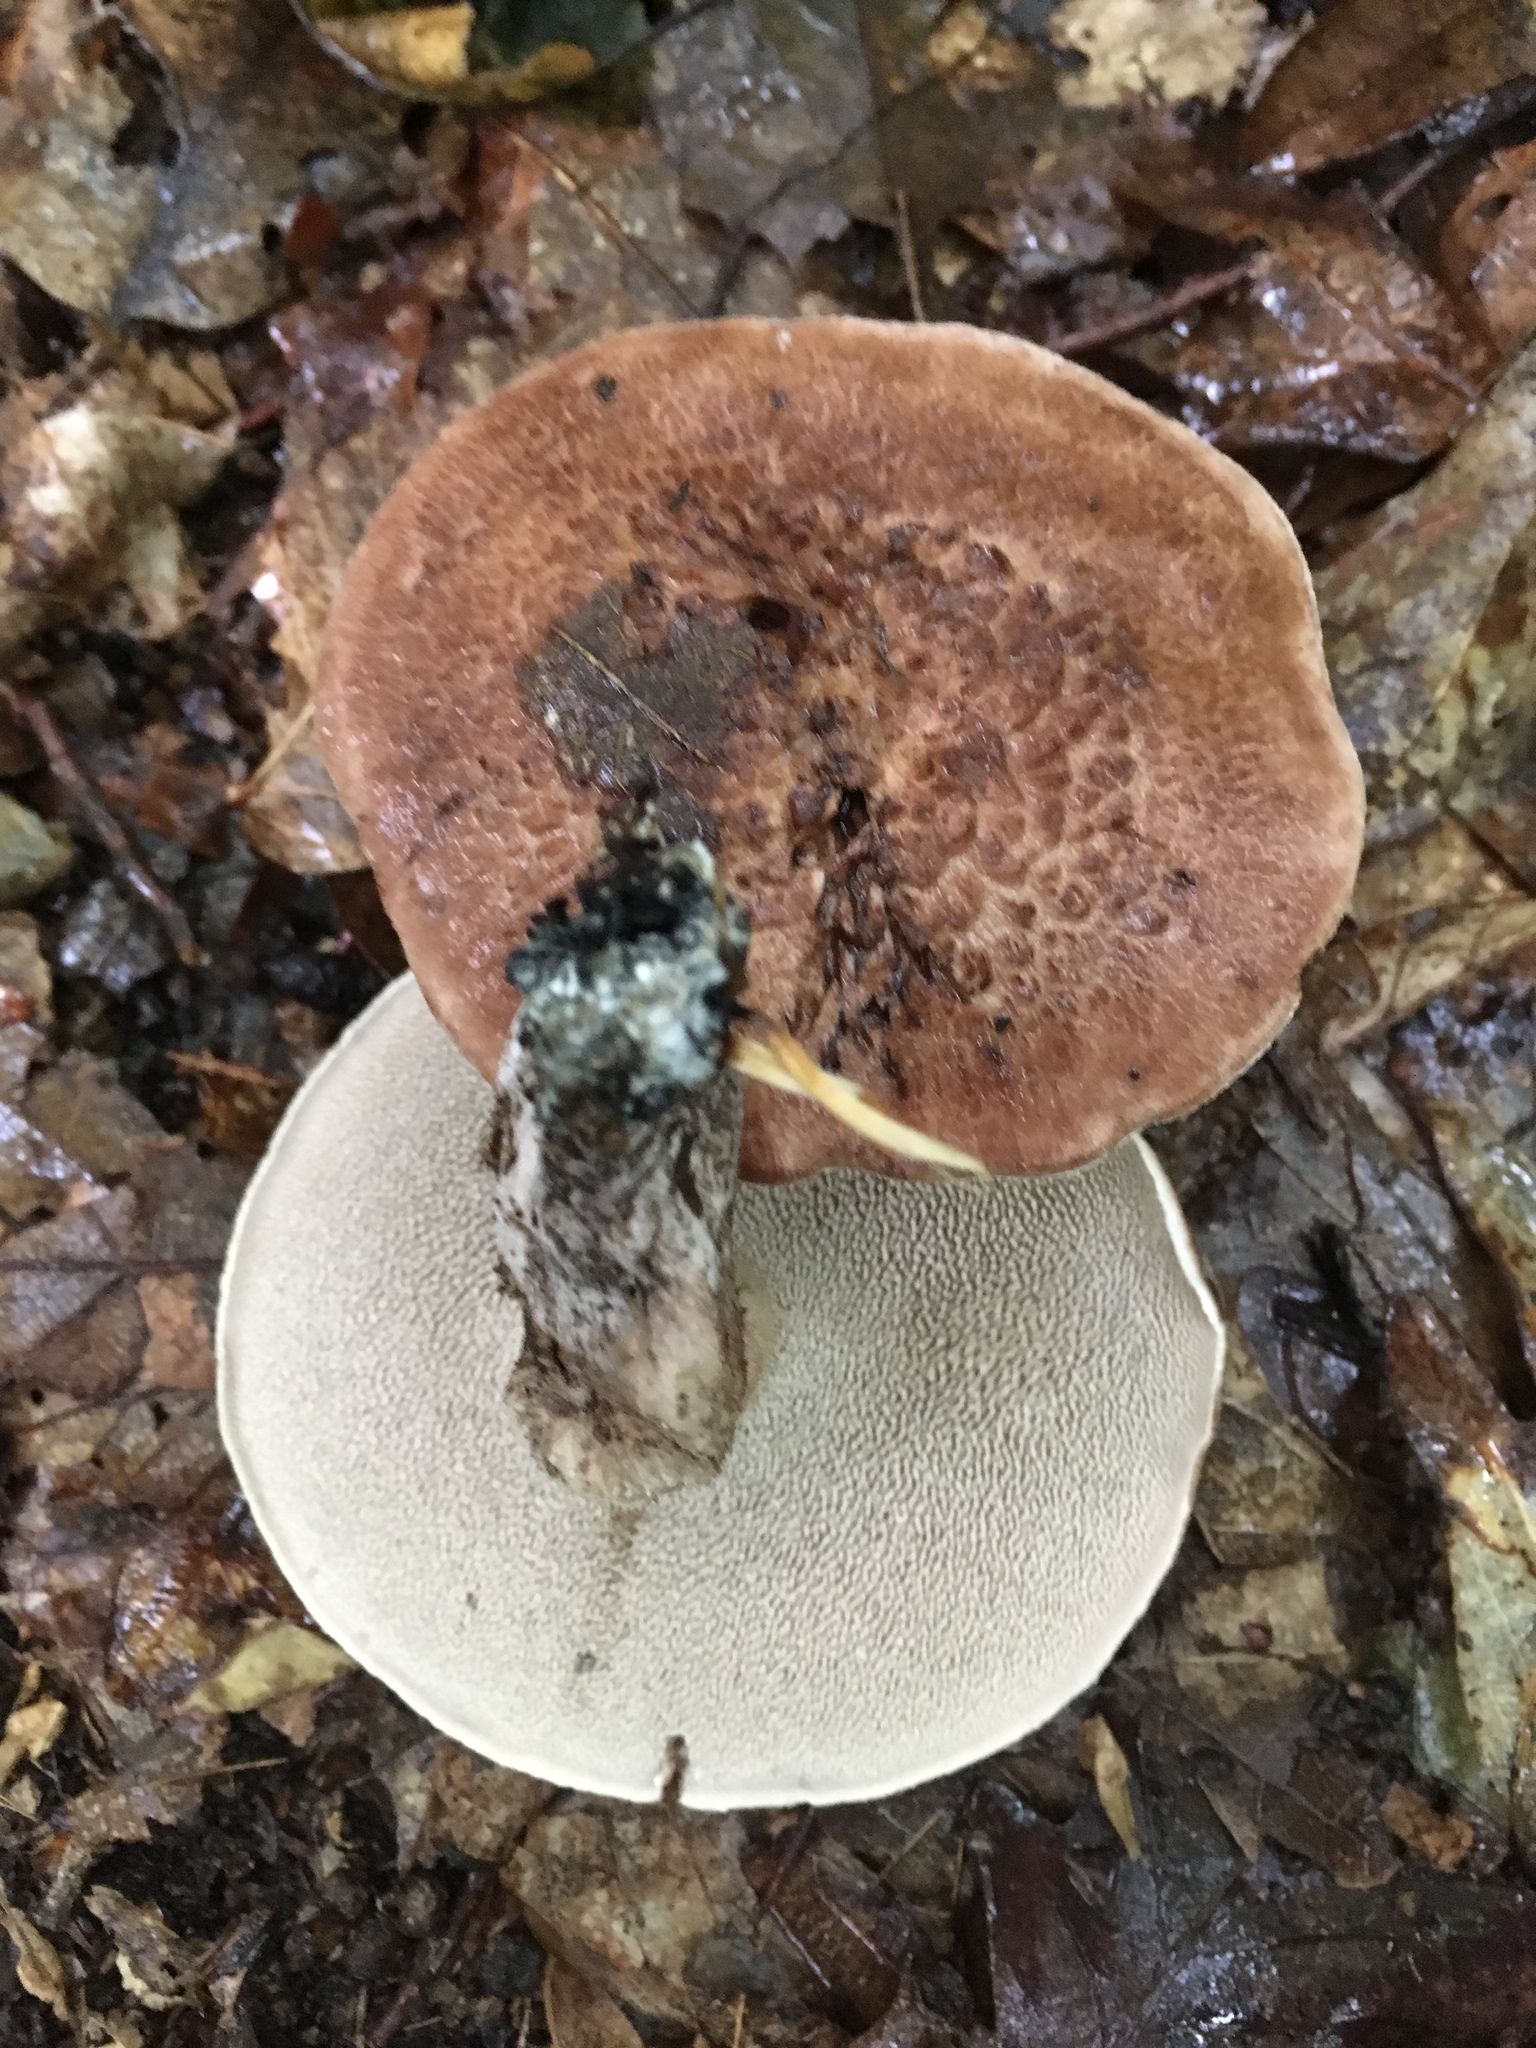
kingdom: Fungi
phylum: Basidiomycota
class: Agaricomycetes
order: Thelephorales
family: Bankeraceae
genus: Hydnellum
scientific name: Hydnellum scabrosum
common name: Bitter tooth
